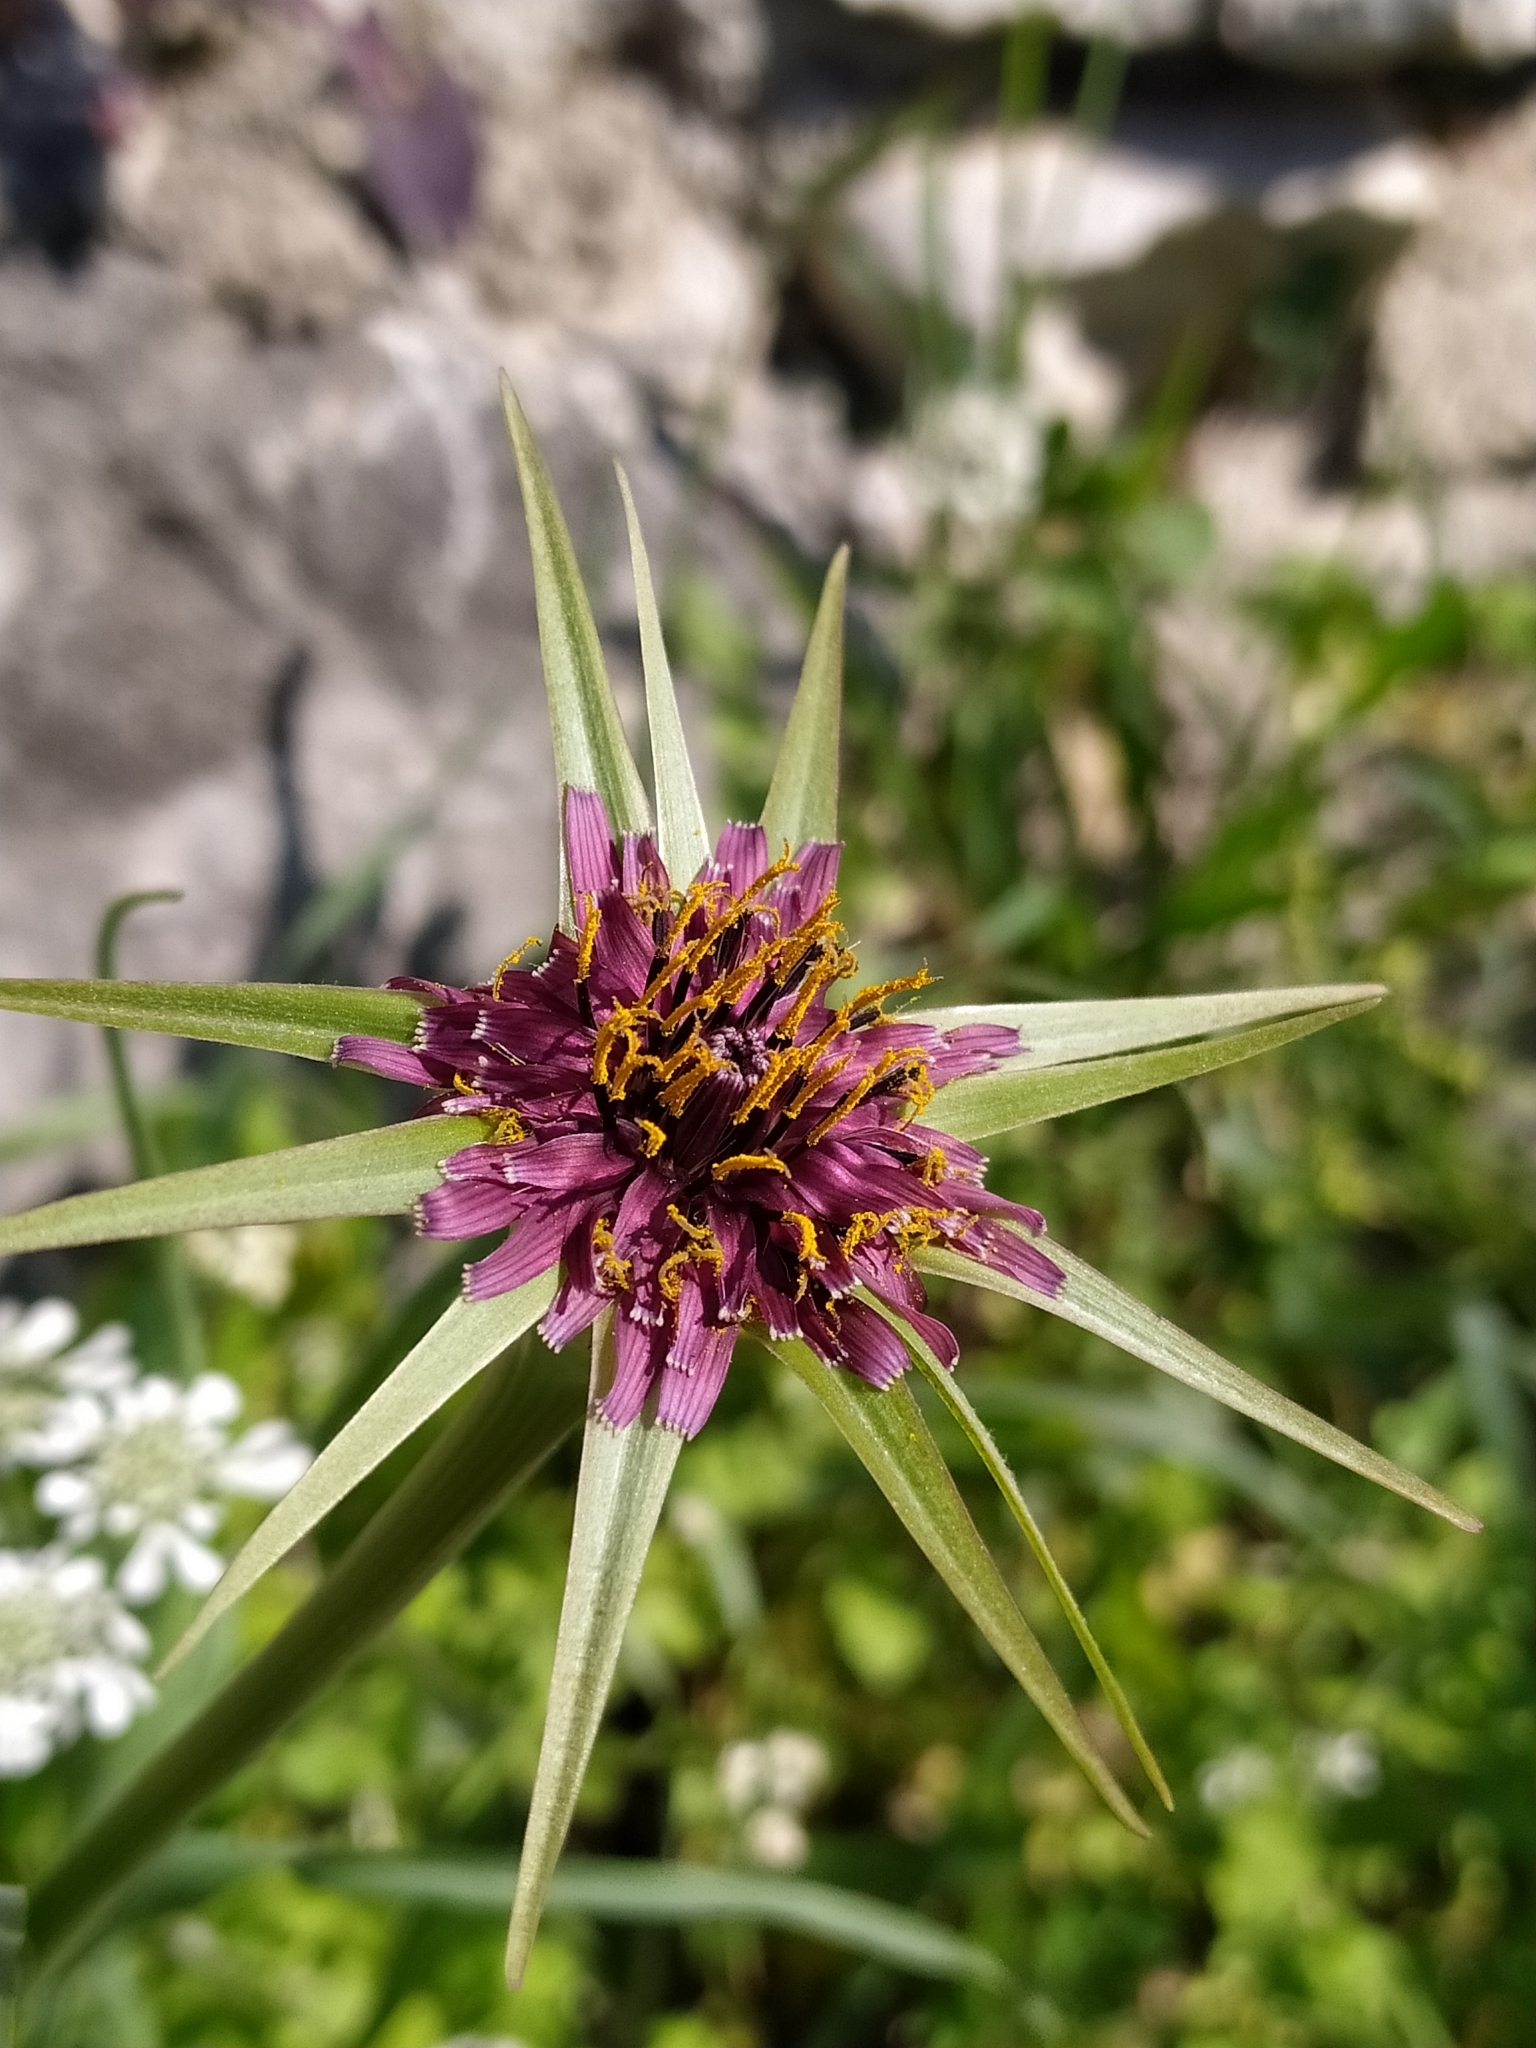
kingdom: Plantae
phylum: Tracheophyta
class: Magnoliopsida
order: Asterales
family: Asteraceae
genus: Tragopogon
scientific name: Tragopogon porrifolius
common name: Salsify
